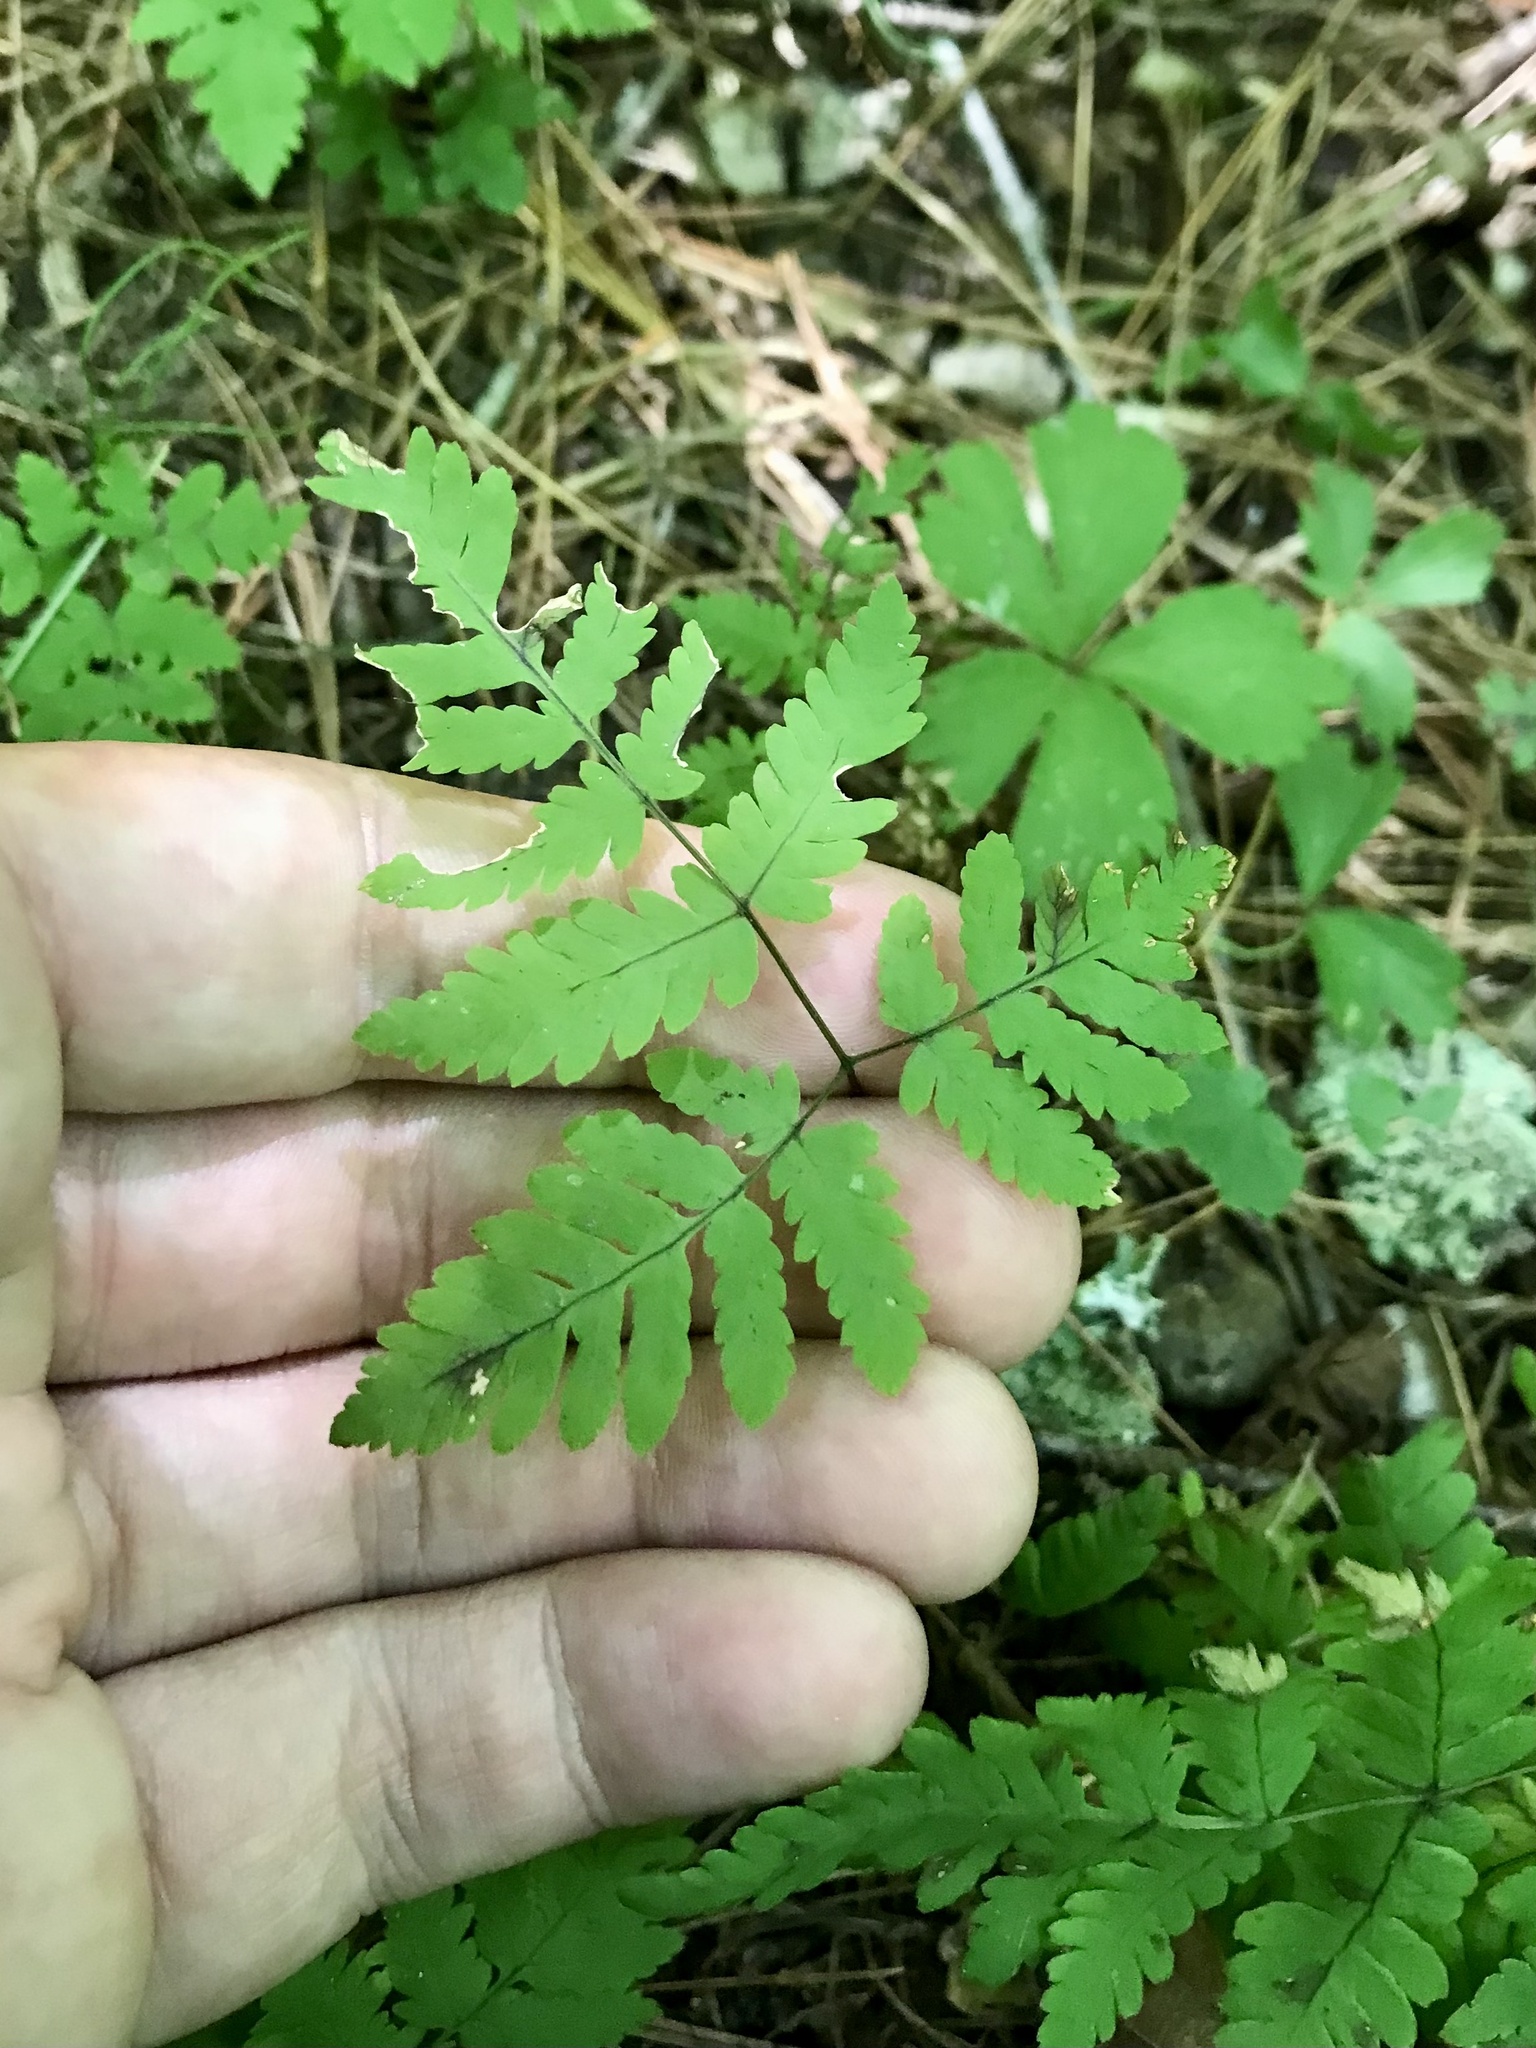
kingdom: Plantae
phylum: Tracheophyta
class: Polypodiopsida
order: Polypodiales
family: Cystopteridaceae
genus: Gymnocarpium
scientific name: Gymnocarpium dryopteris
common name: Oak fern
